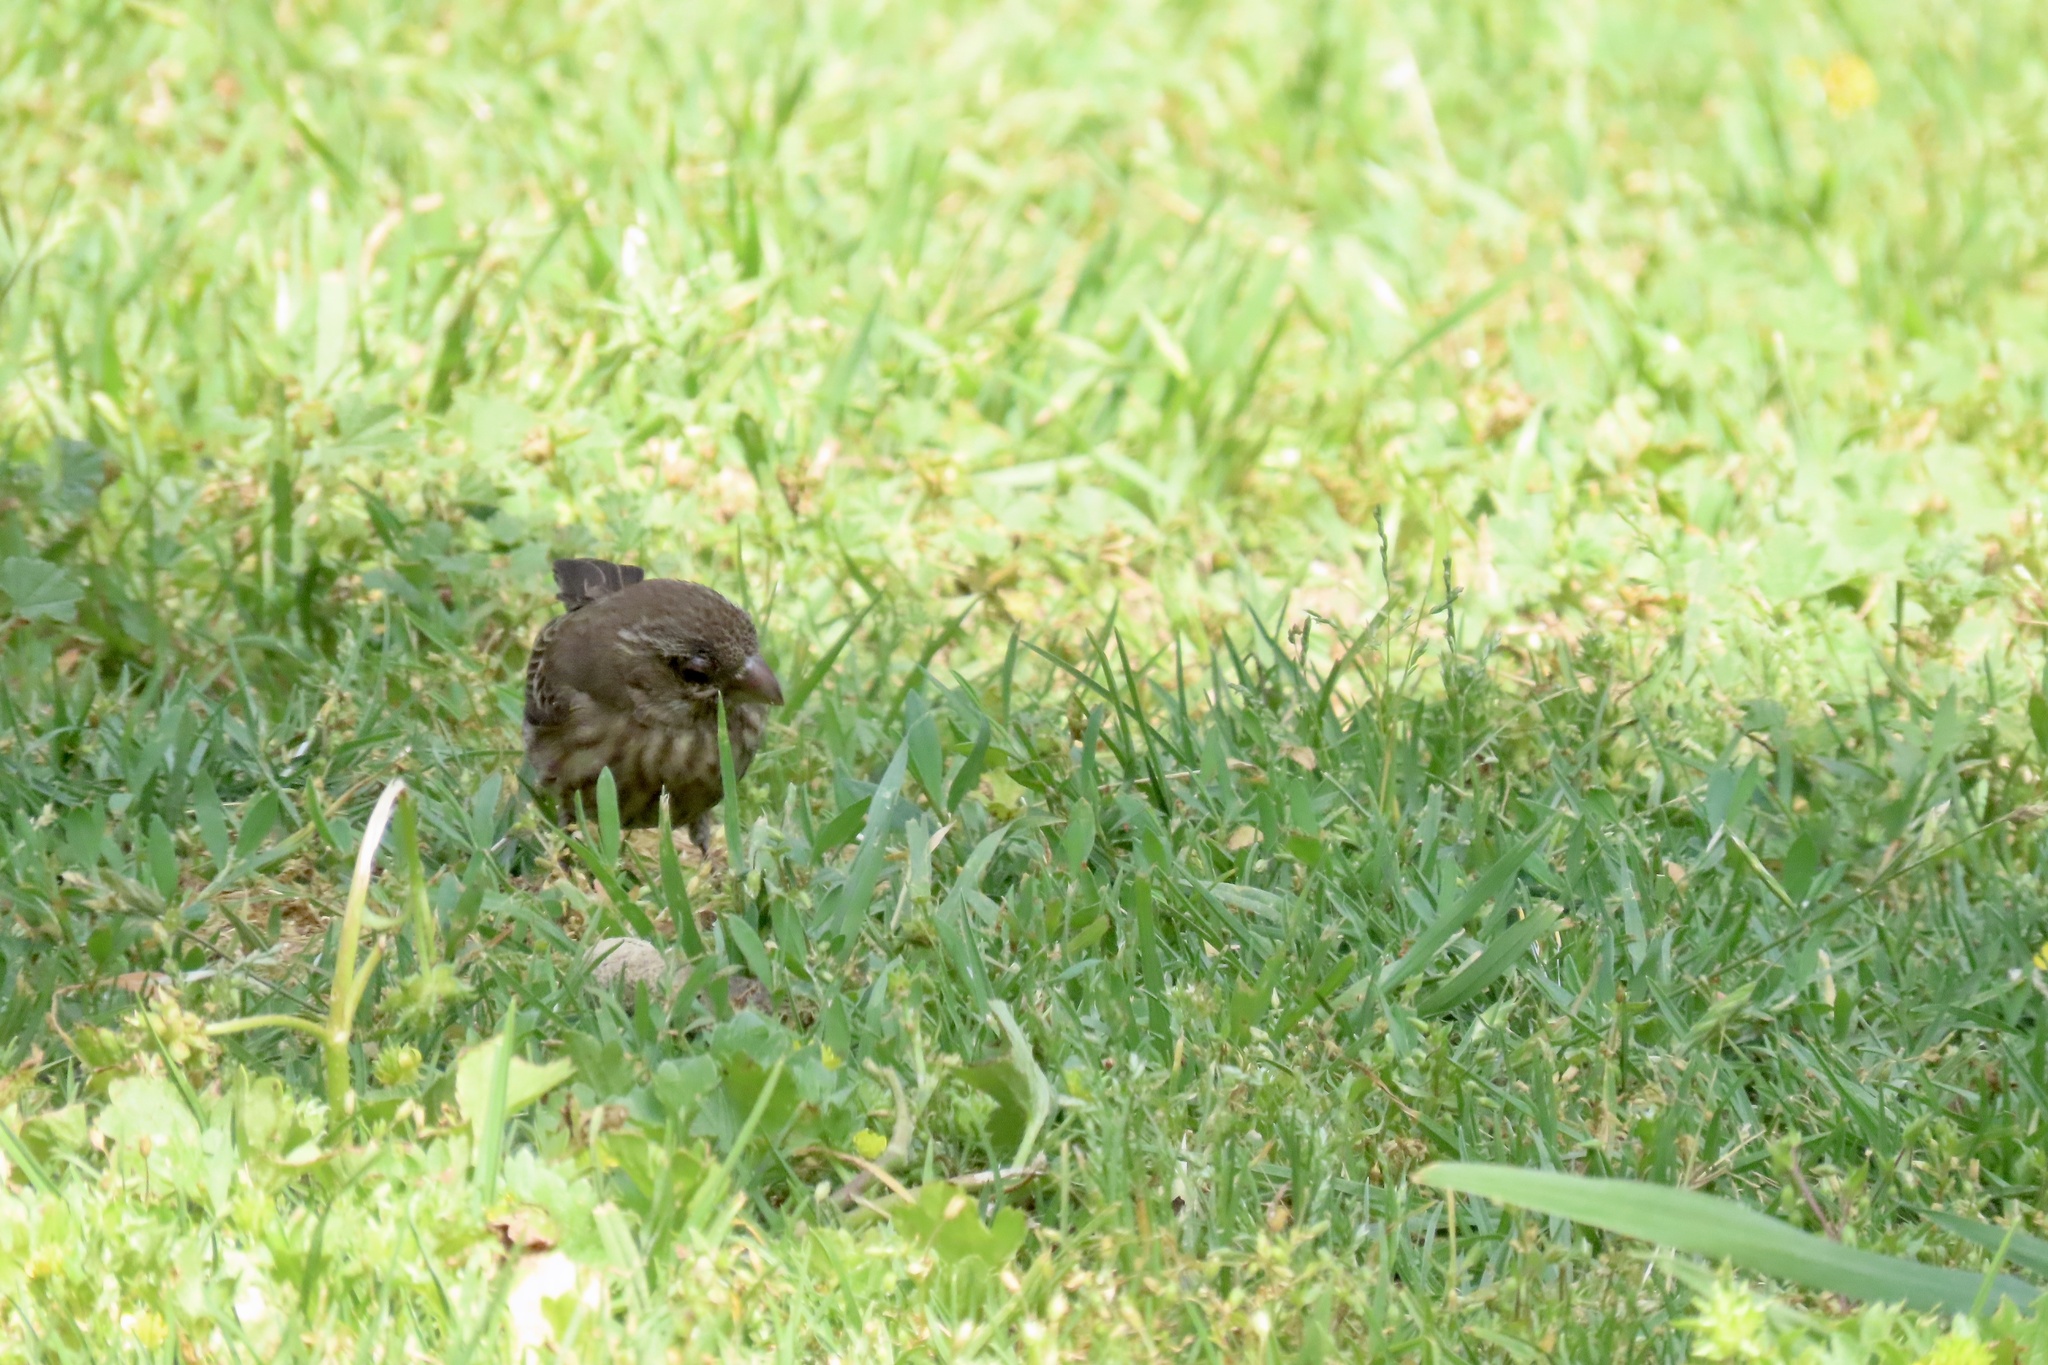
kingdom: Animalia
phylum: Chordata
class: Aves
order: Passeriformes
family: Fringillidae
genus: Haemorhous
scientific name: Haemorhous mexicanus
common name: House finch
